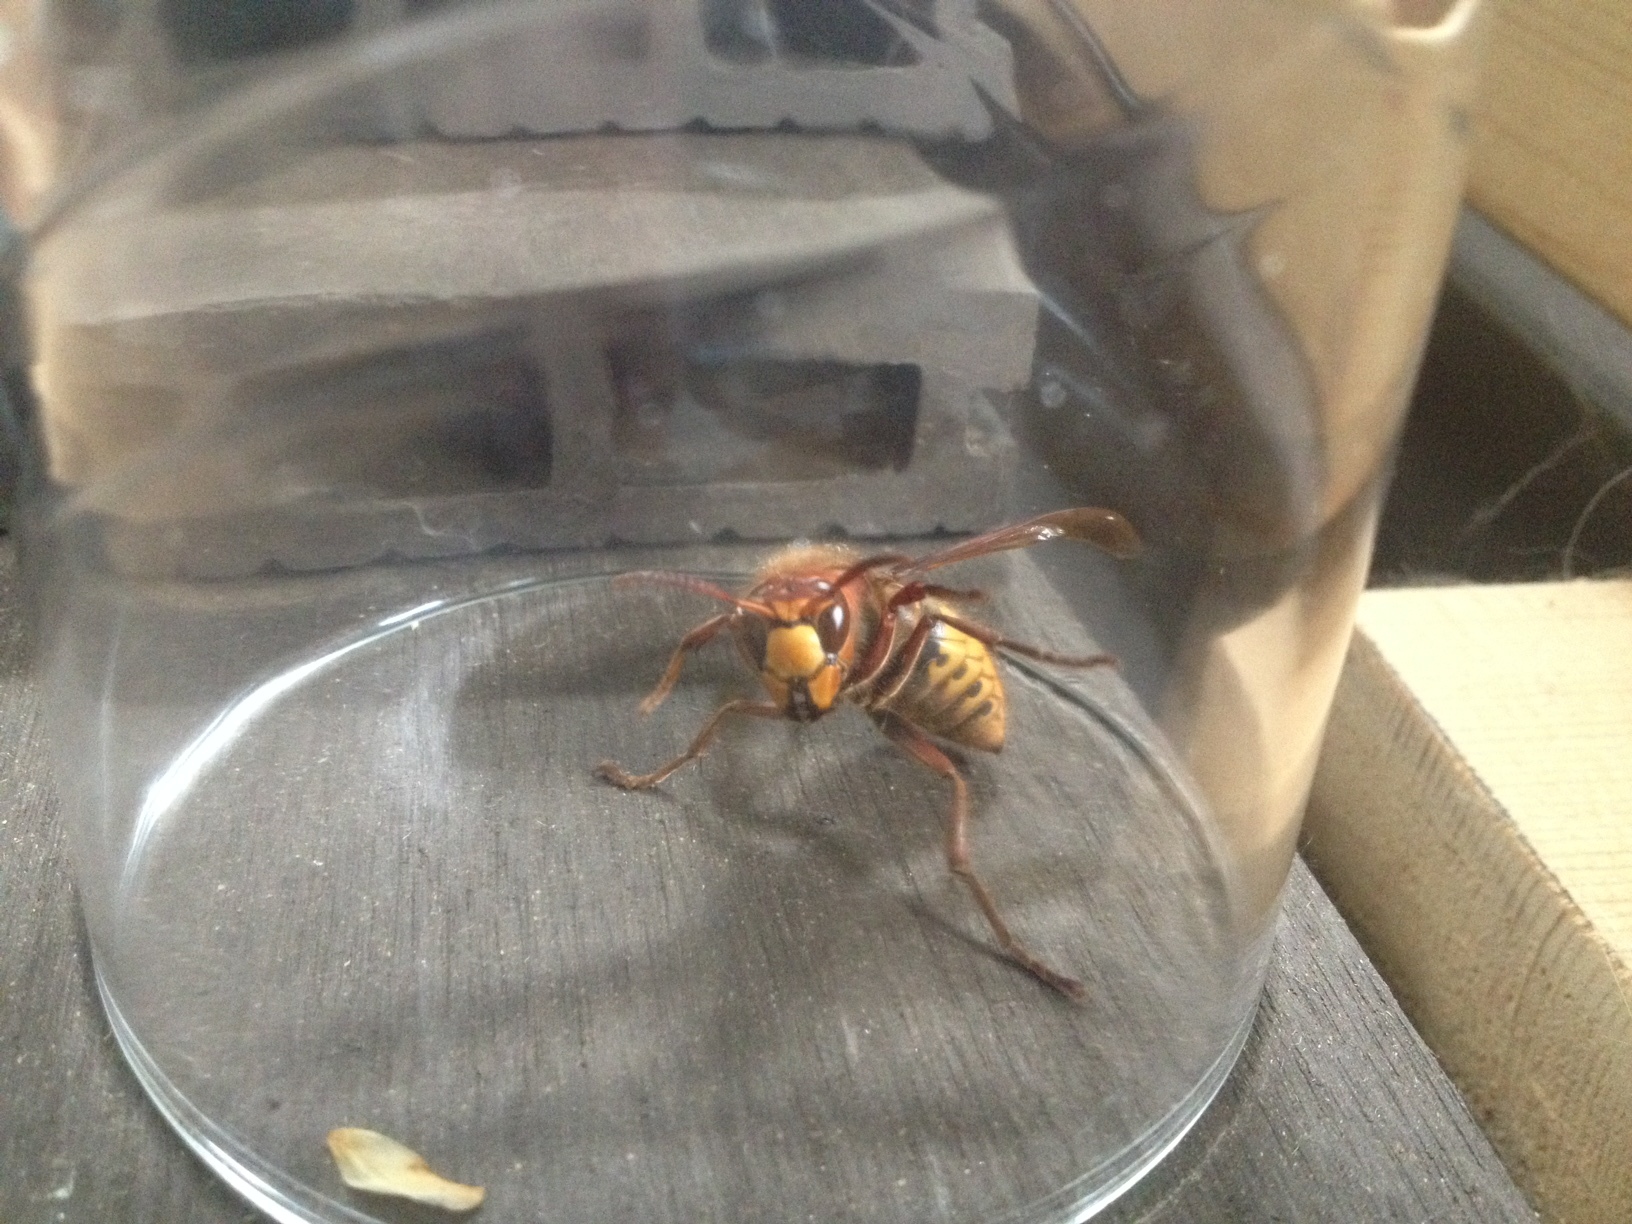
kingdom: Animalia
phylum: Arthropoda
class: Insecta
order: Hymenoptera
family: Vespidae
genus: Vespa
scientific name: Vespa crabro
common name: Hornet
